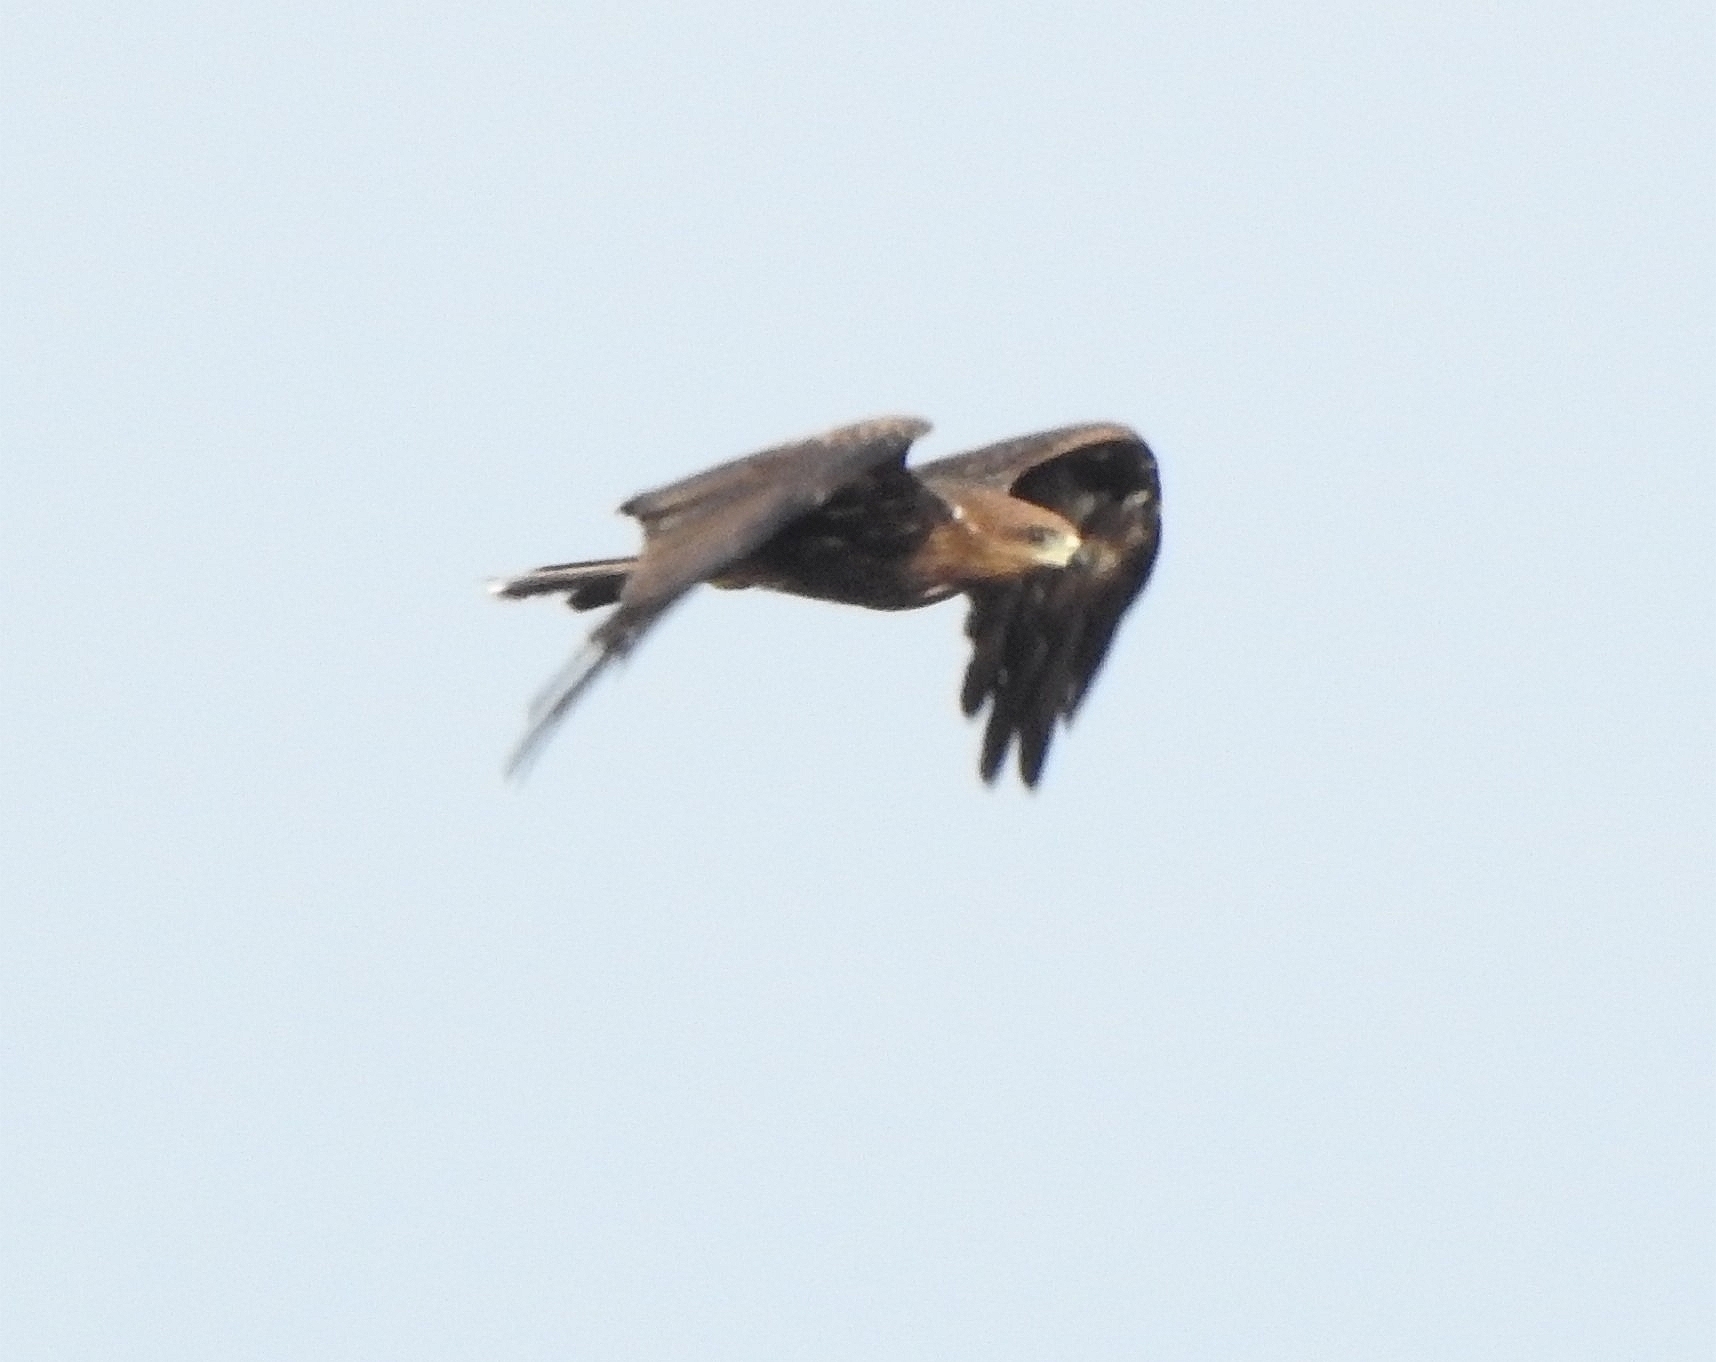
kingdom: Animalia
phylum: Chordata
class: Aves
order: Accipitriformes
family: Accipitridae
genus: Milvus
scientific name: Milvus migrans
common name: Black kite
